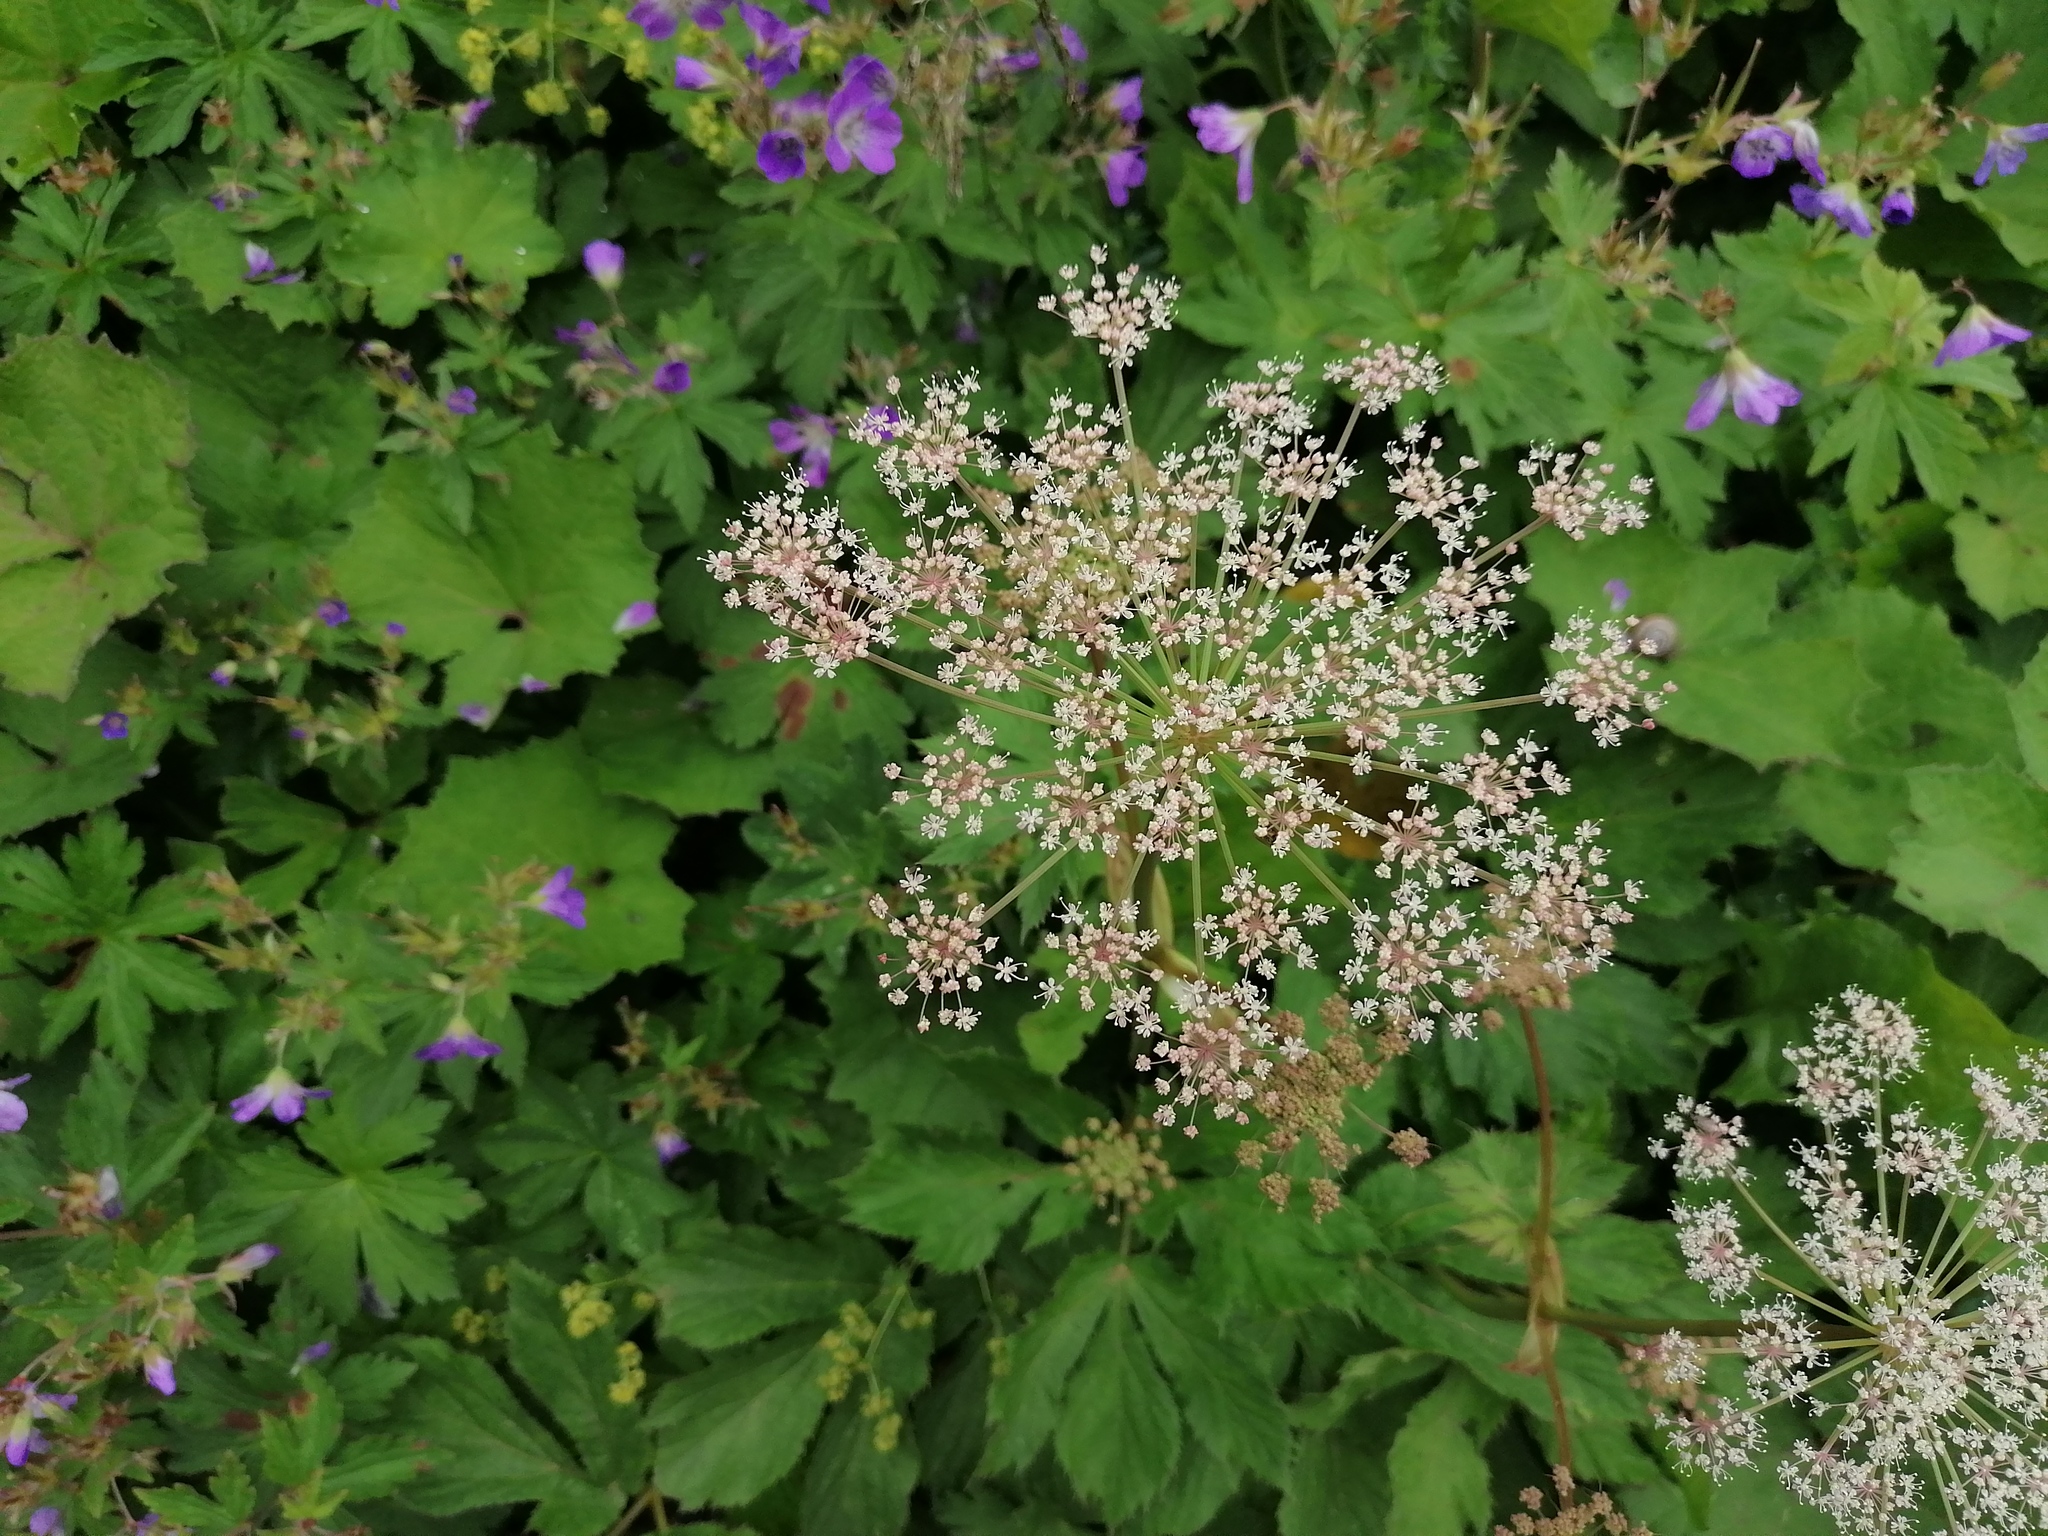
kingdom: Plantae
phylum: Tracheophyta
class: Magnoliopsida
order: Apiales
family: Apiaceae
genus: Imperatoria
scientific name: Imperatoria ostruthium
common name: Masterwort
